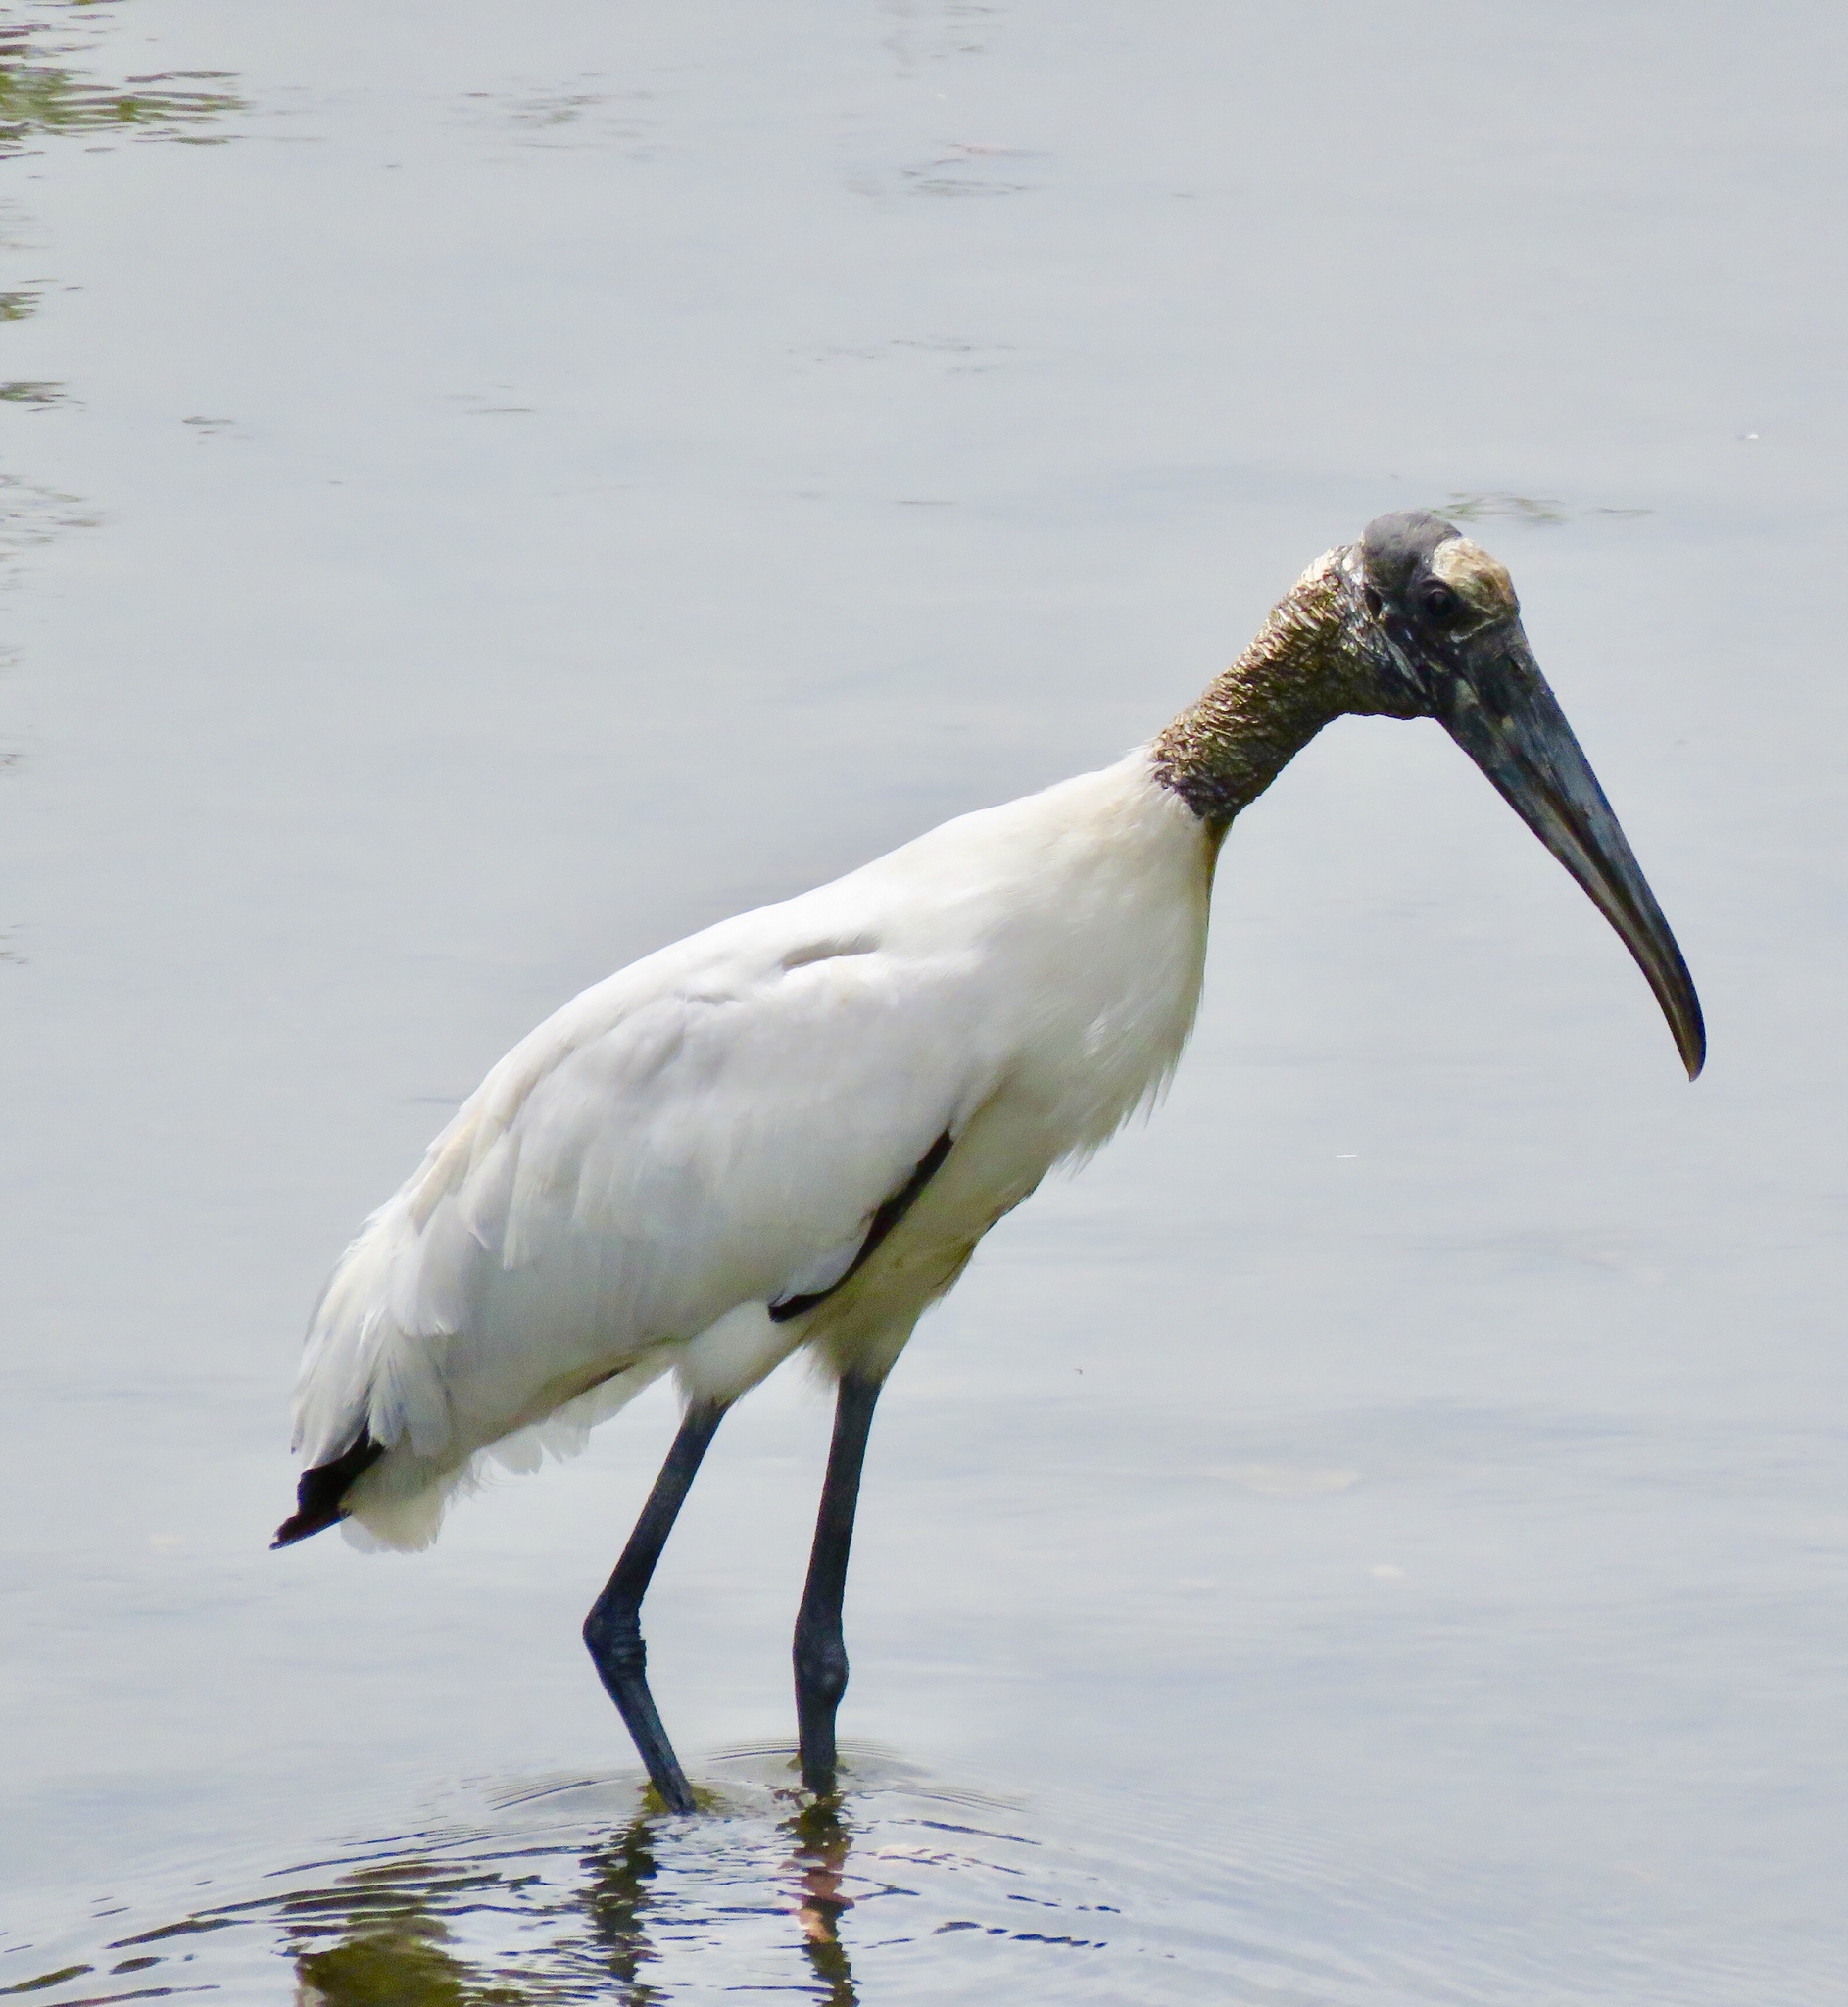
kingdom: Animalia
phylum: Chordata
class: Aves
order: Ciconiiformes
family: Ciconiidae
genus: Mycteria
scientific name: Mycteria americana
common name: Wood stork
